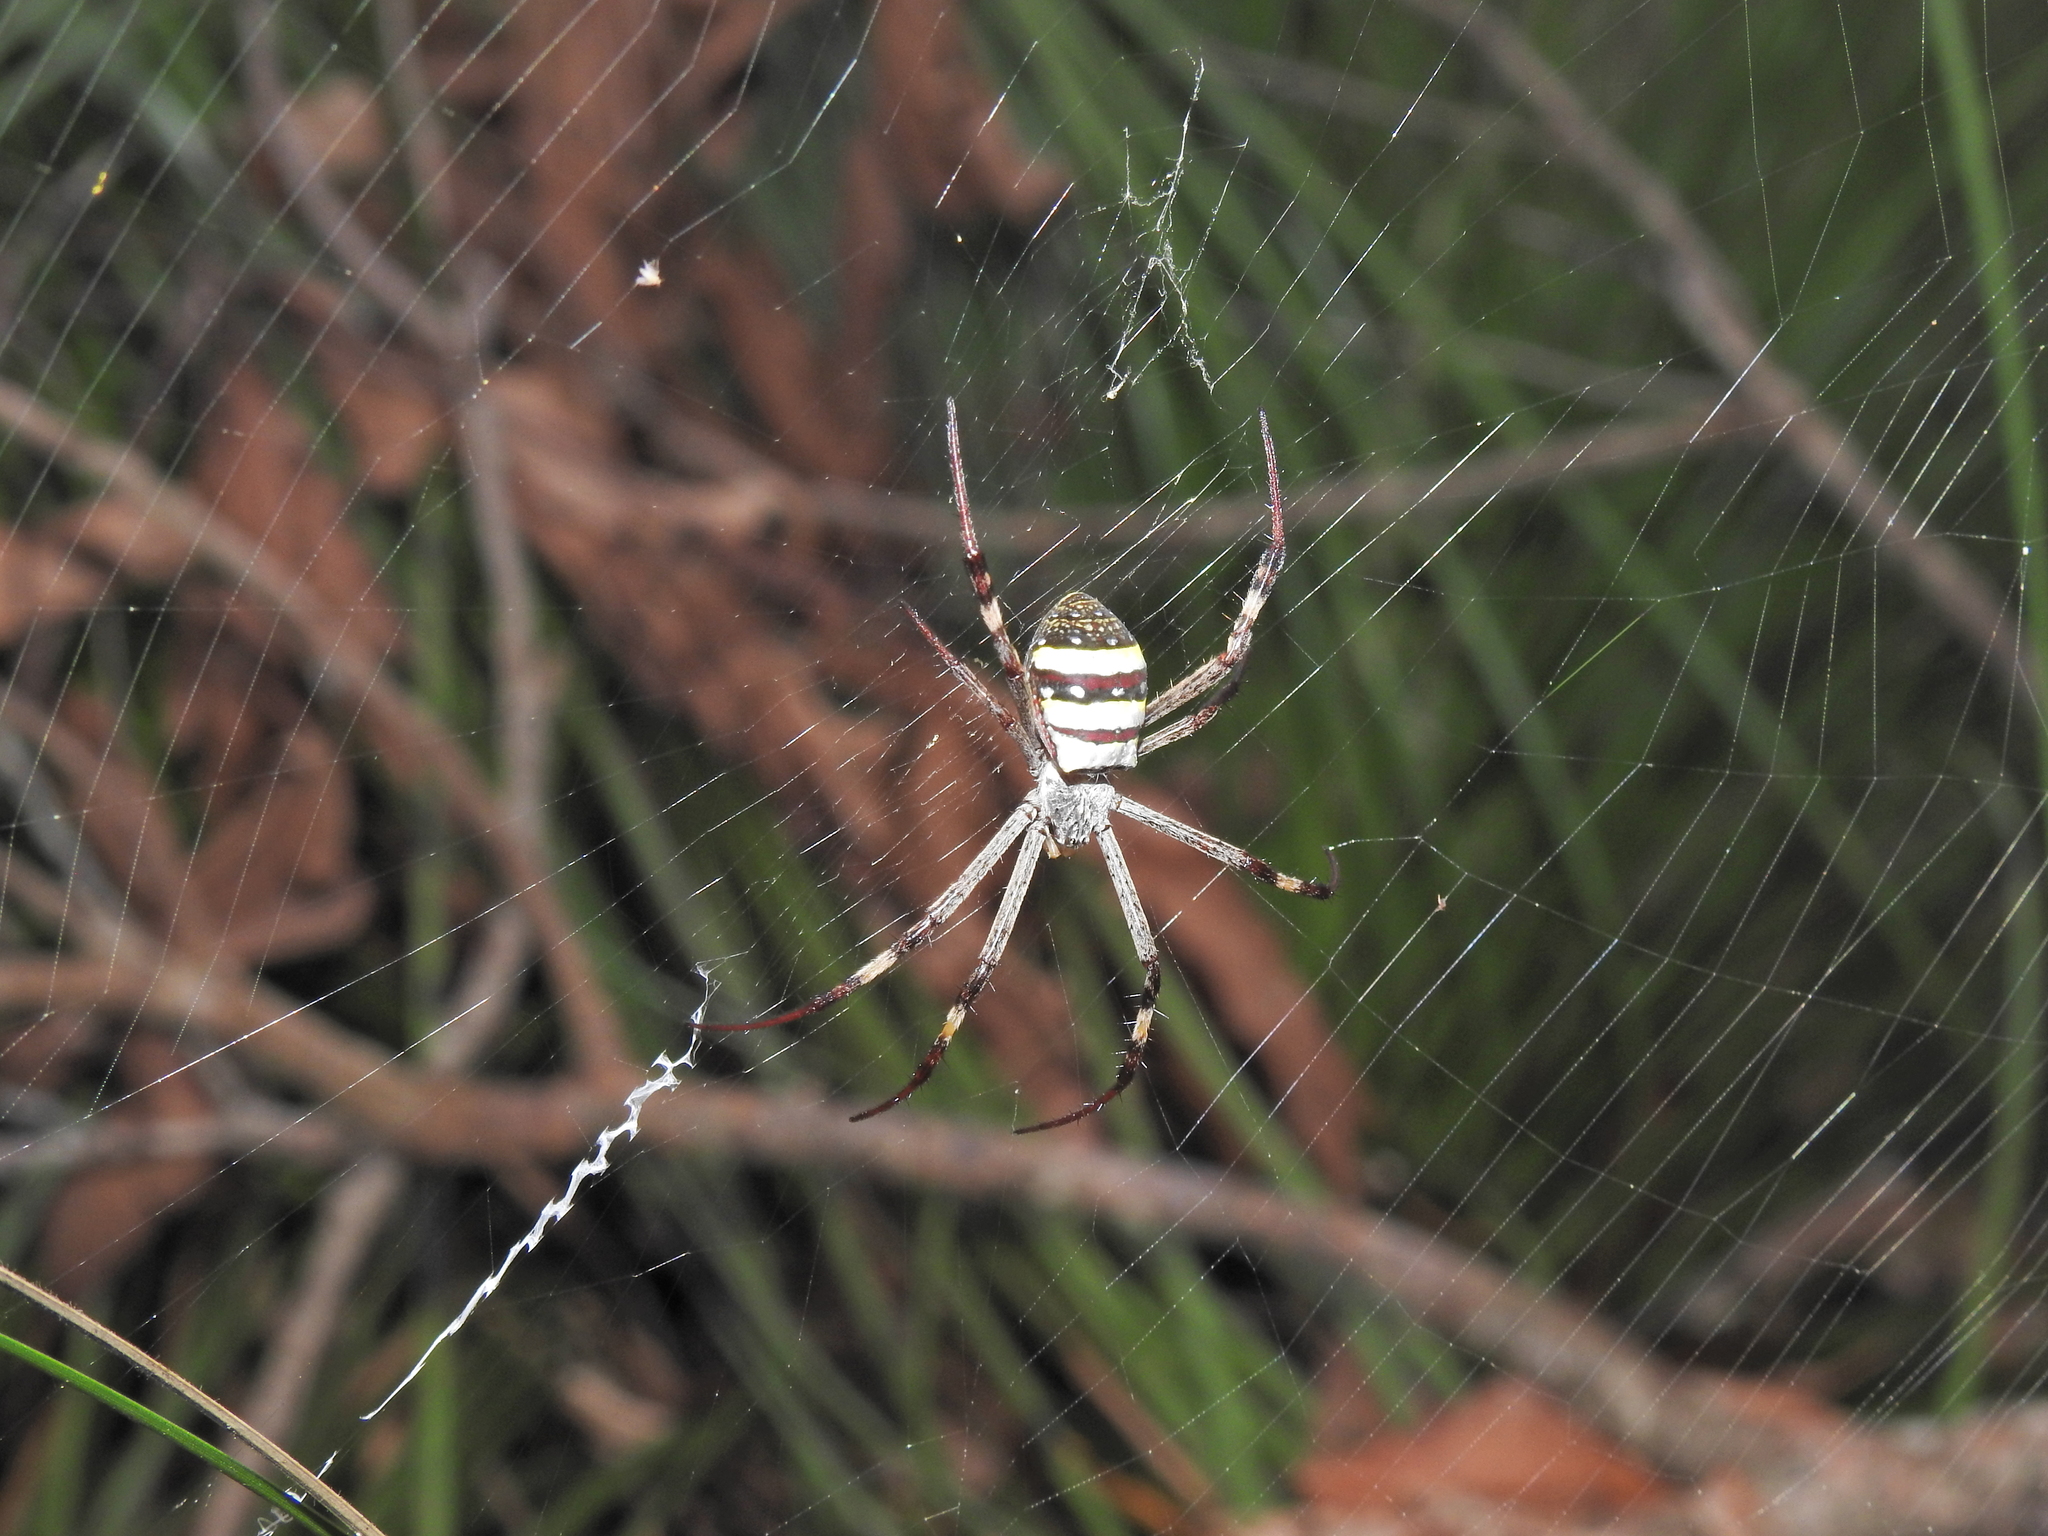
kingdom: Animalia
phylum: Arthropoda
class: Arachnida
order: Araneae
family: Araneidae
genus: Argiope
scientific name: Argiope keyserlingi
